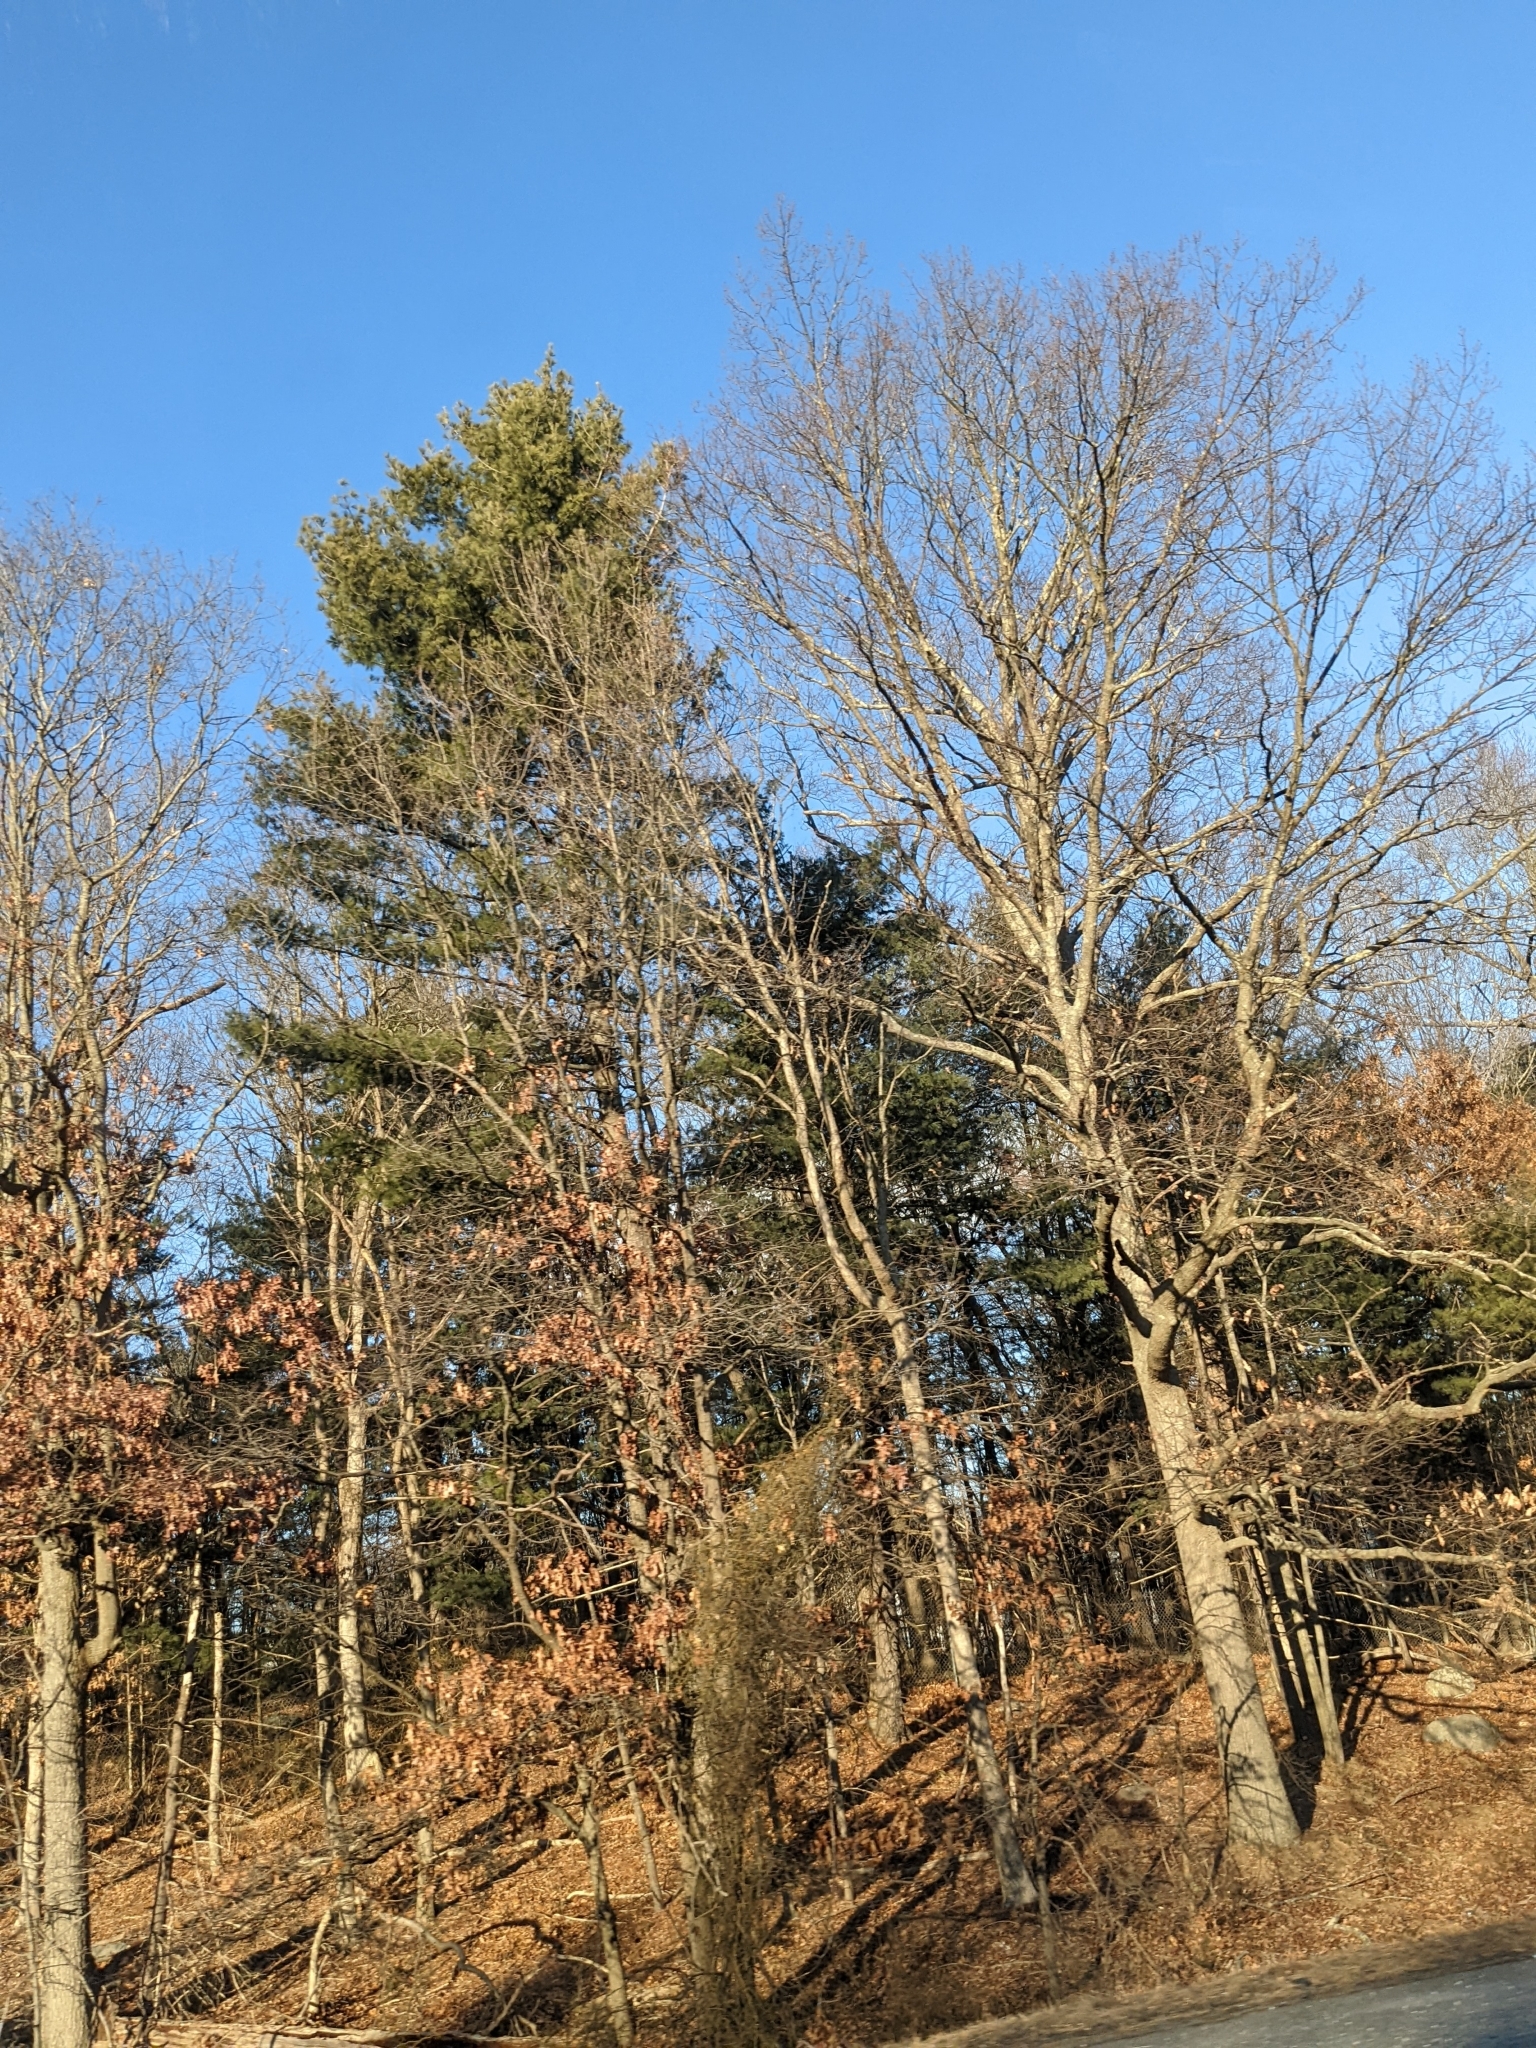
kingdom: Plantae
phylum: Tracheophyta
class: Pinopsida
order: Pinales
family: Pinaceae
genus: Pinus
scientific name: Pinus strobus
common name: Weymouth pine
